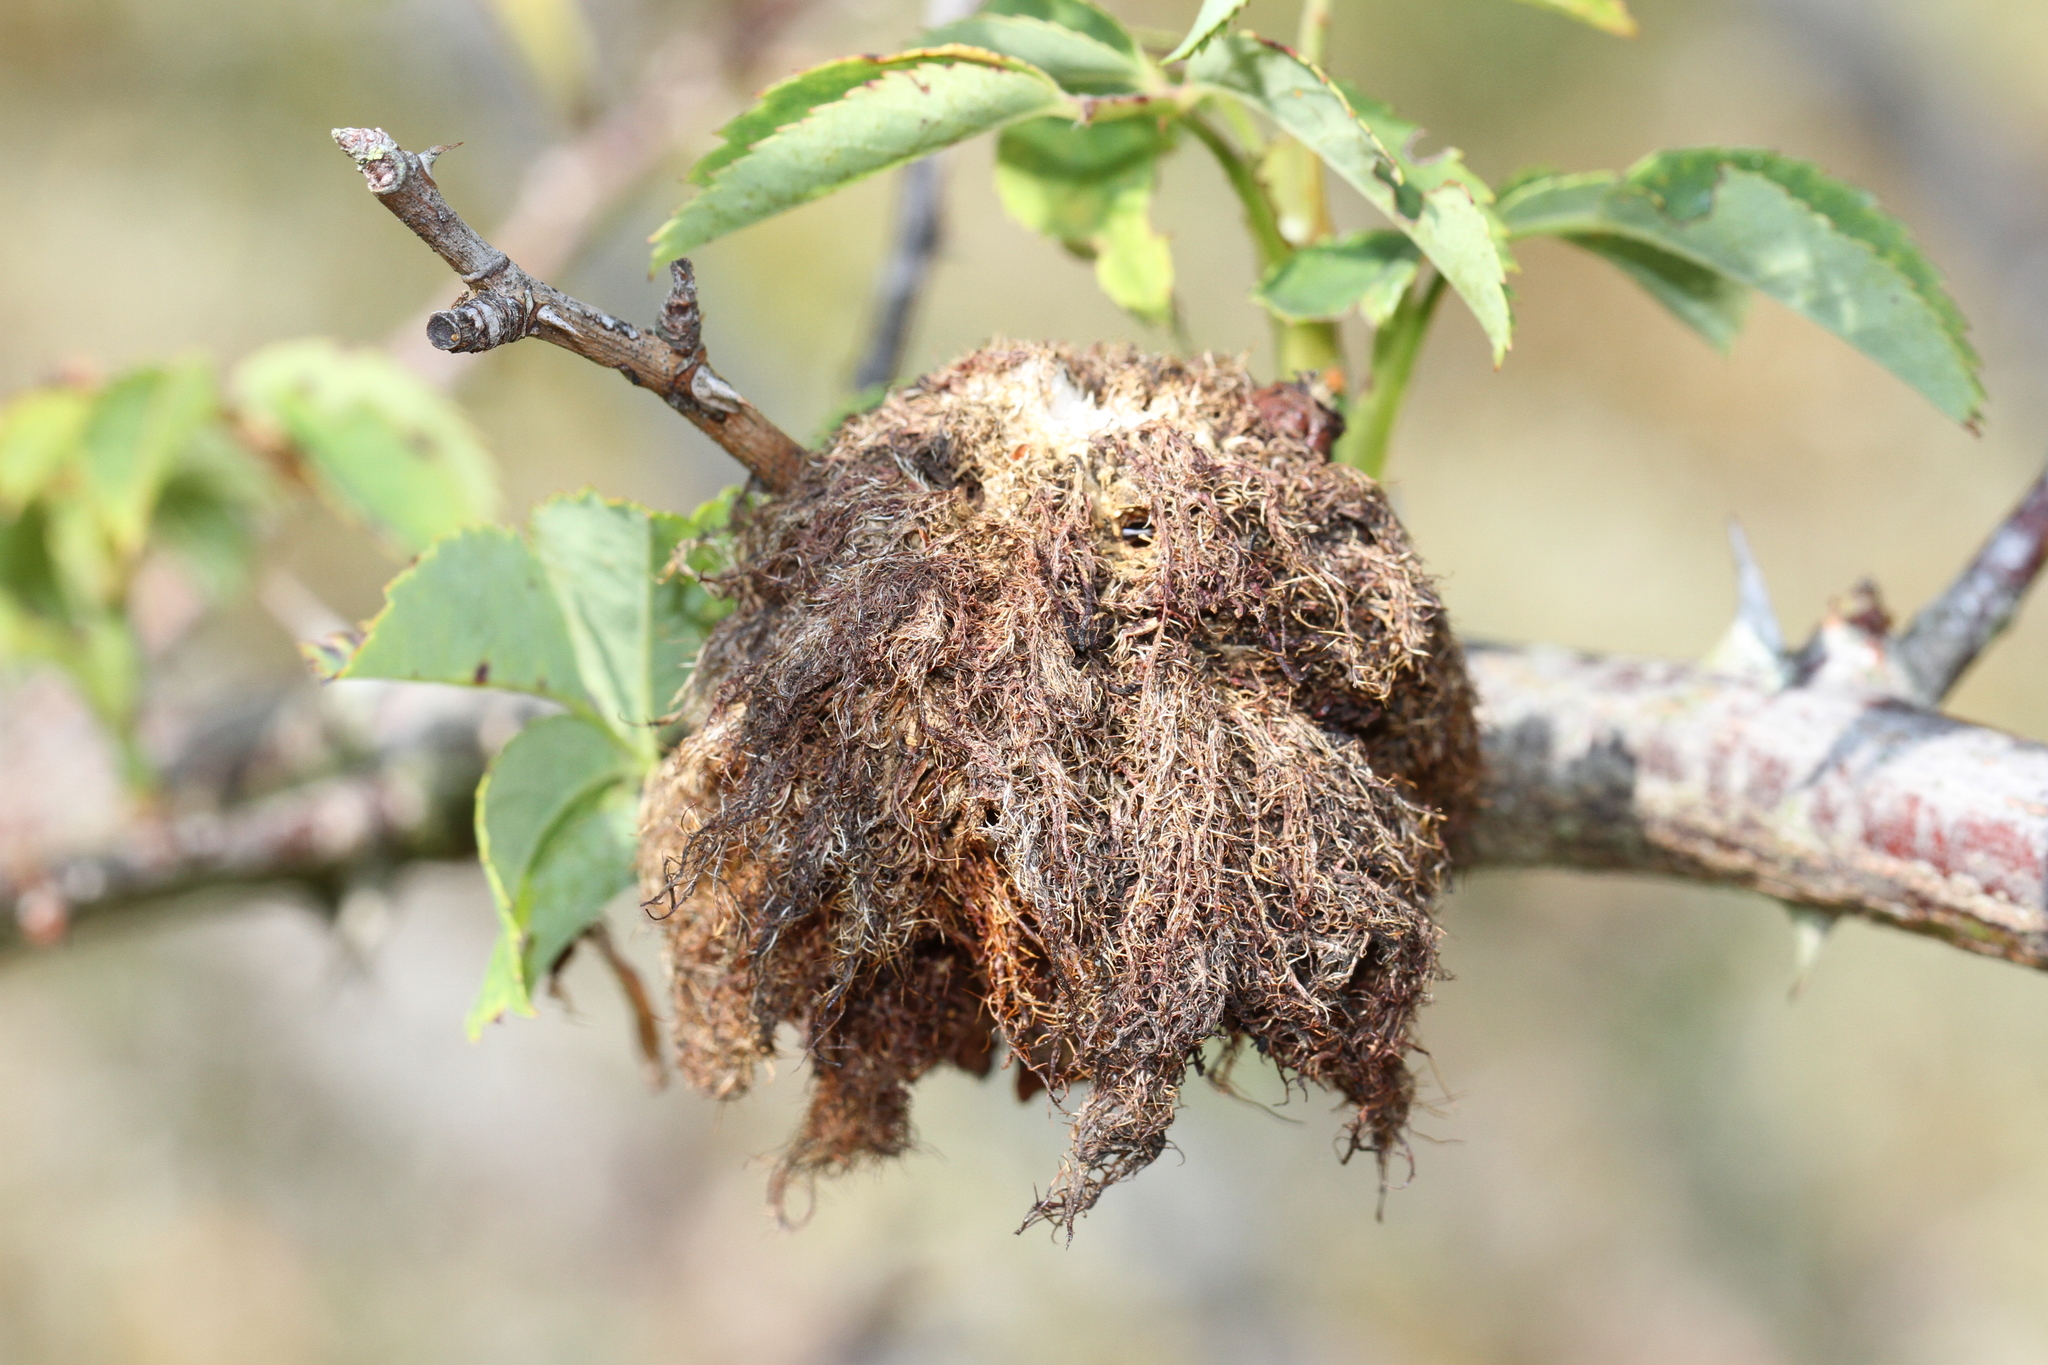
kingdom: Animalia
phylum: Arthropoda
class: Insecta
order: Hymenoptera
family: Cynipidae
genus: Diplolepis
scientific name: Diplolepis rosae
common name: Bedeguar gall
